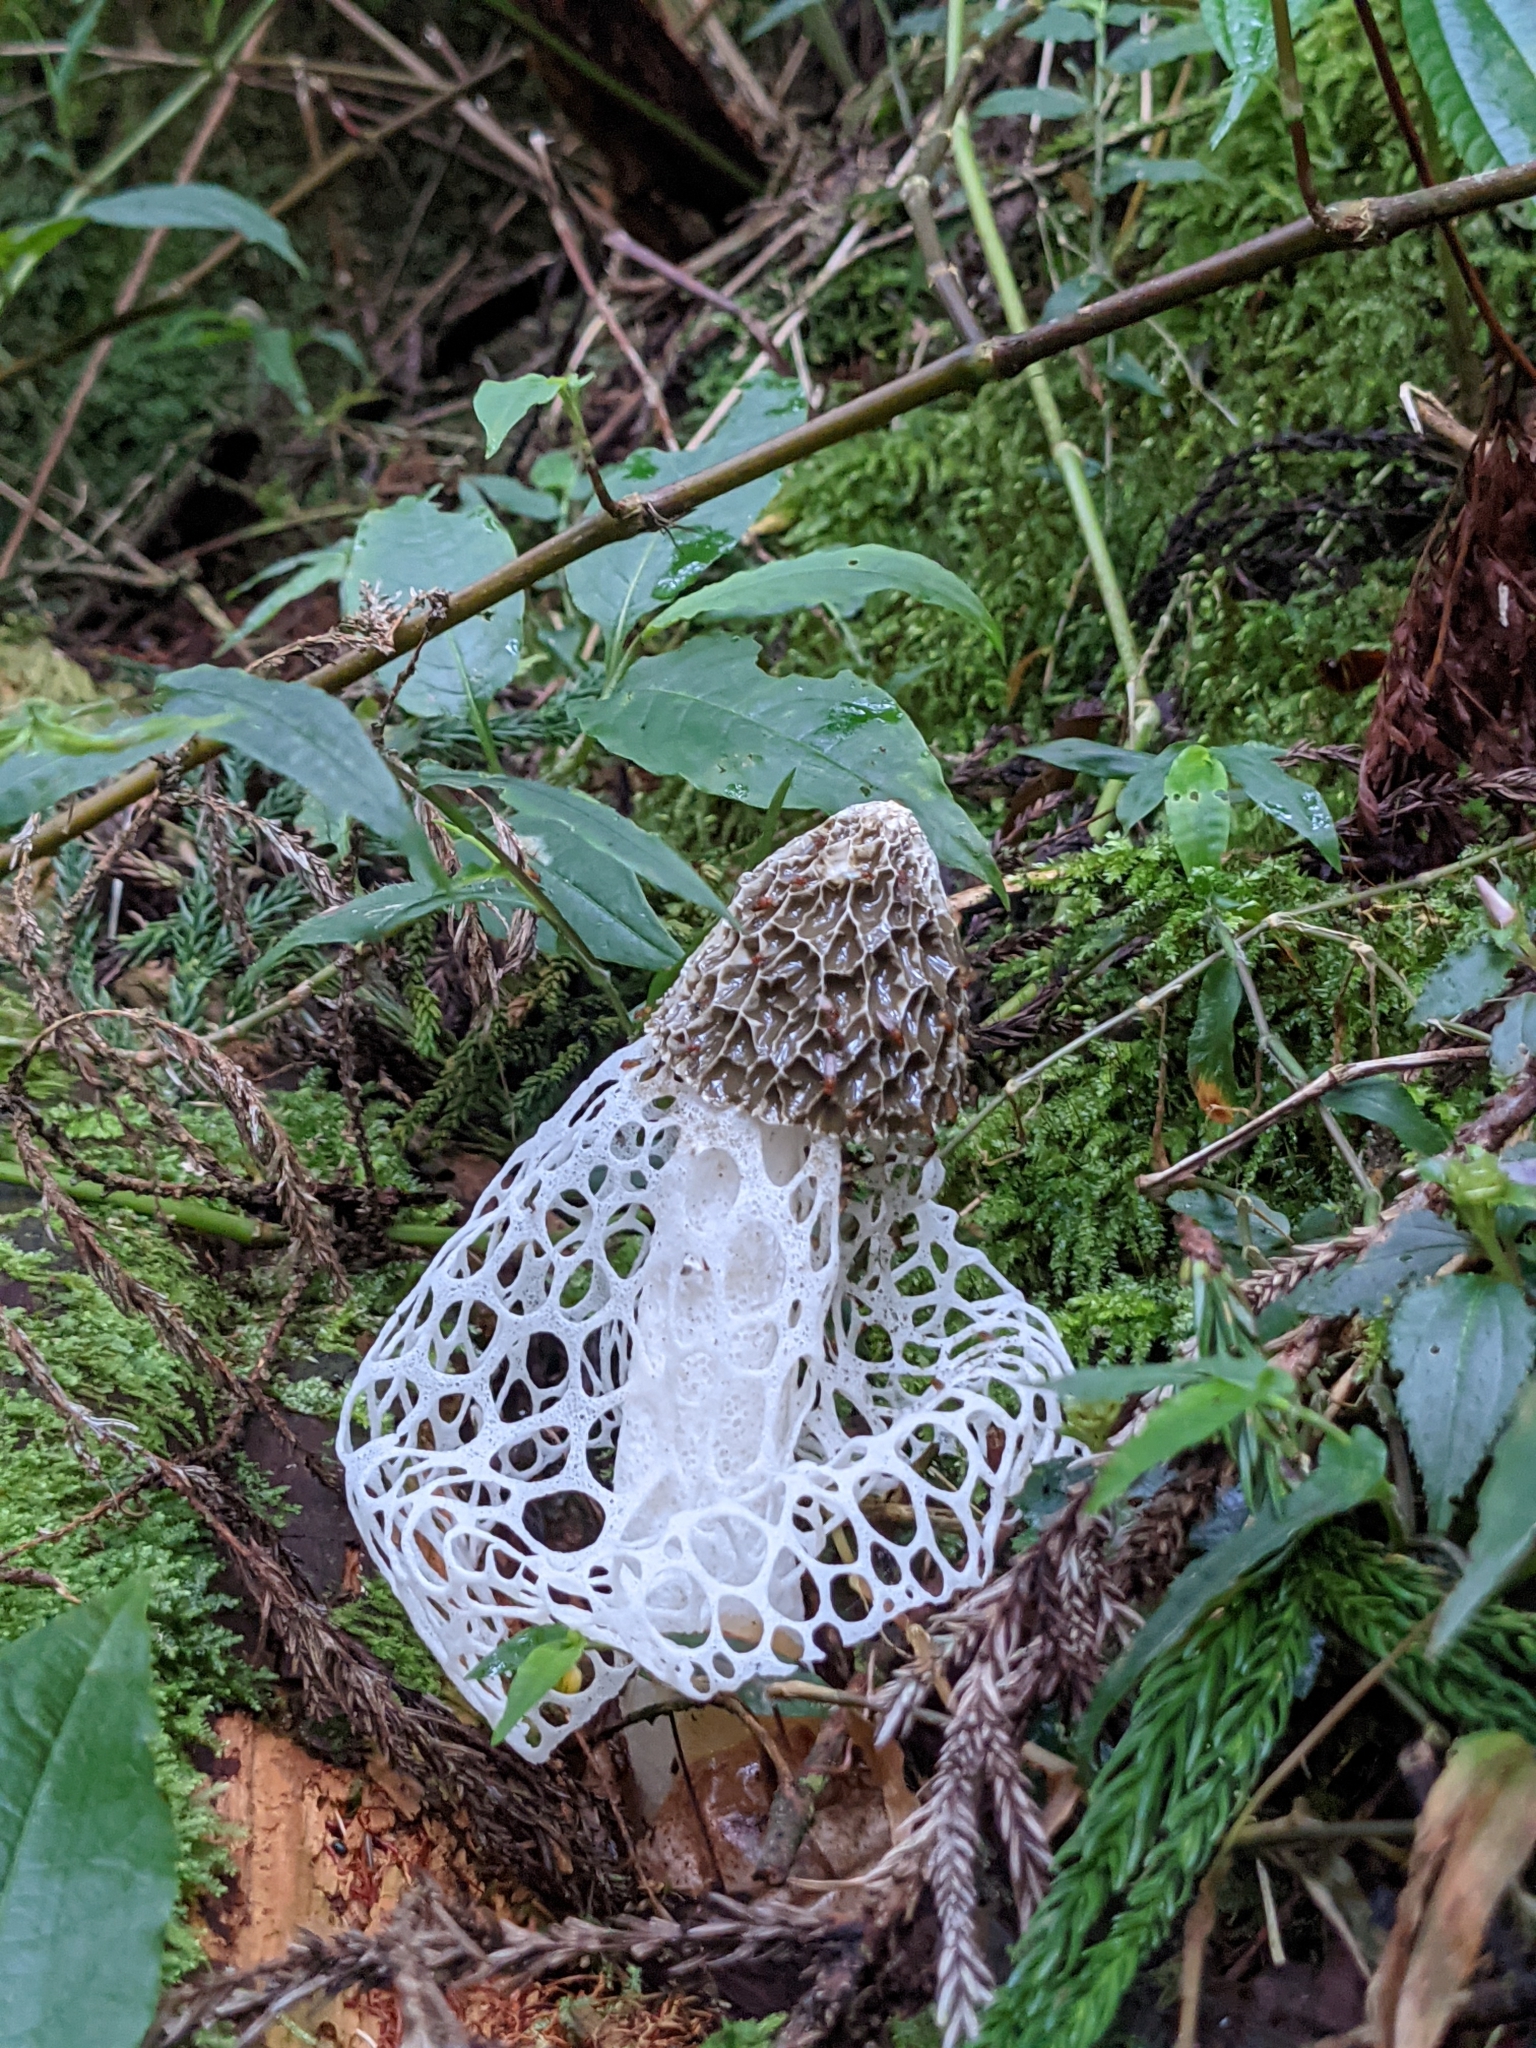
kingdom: Fungi
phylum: Basidiomycota
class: Agaricomycetes
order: Phallales
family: Phallaceae
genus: Phallus
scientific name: Phallus indusiatus
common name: Bridal veil stinkhorn
